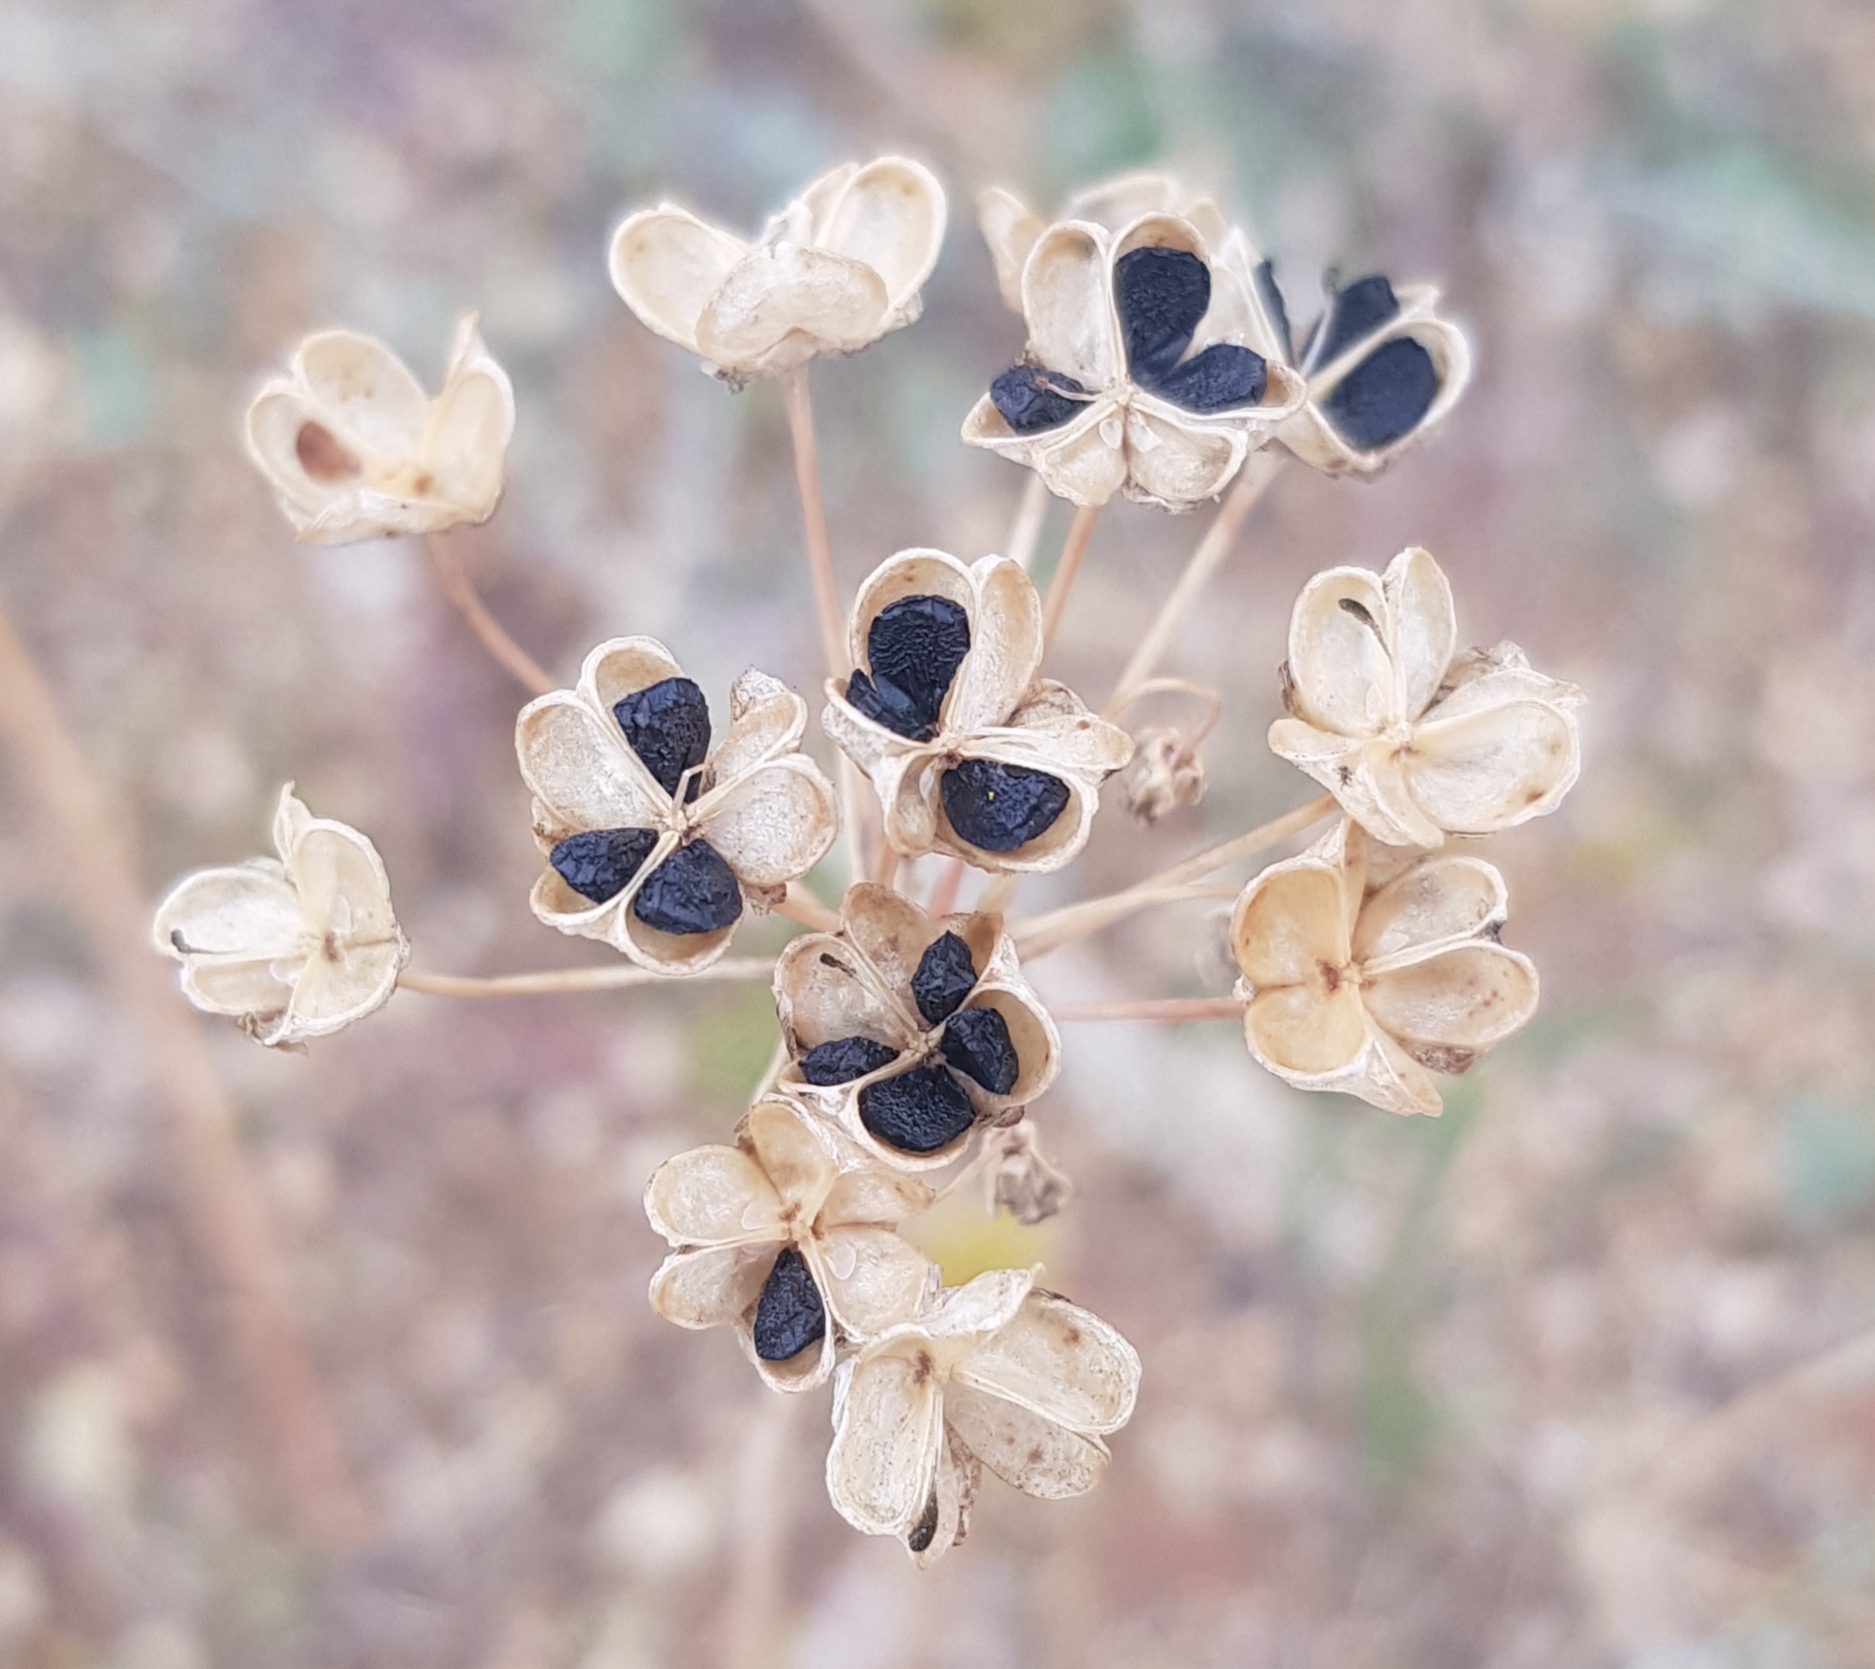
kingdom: Plantae
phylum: Tracheophyta
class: Liliopsida
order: Asparagales
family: Amaryllidaceae
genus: Allium
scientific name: Allium ramosum
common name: Fragrant garlic
